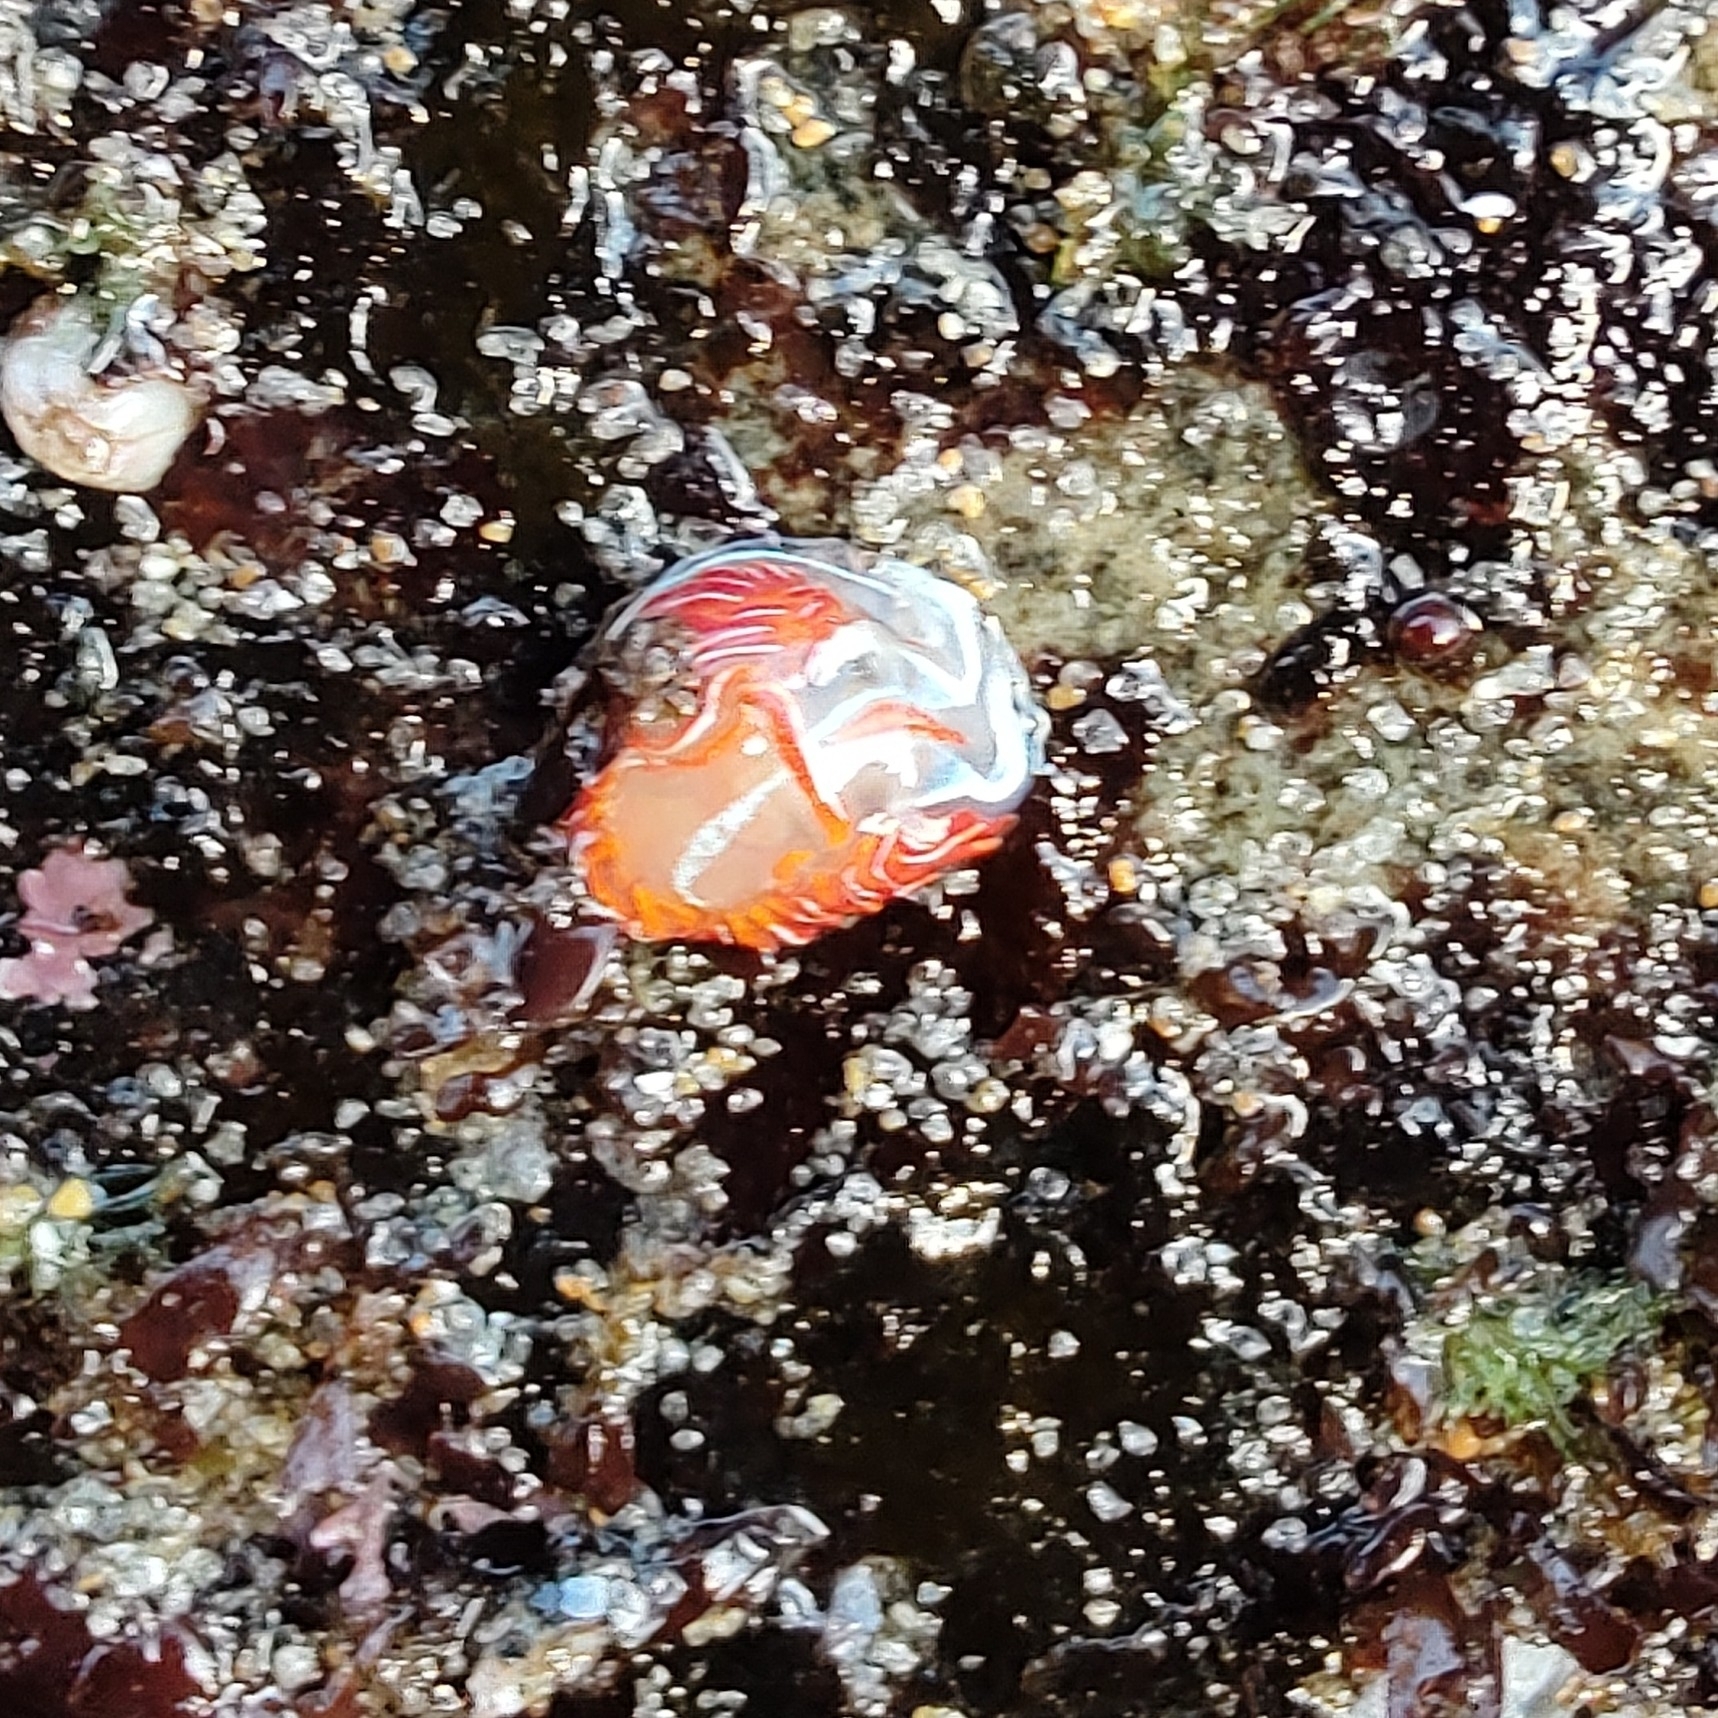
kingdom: Animalia
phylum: Mollusca
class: Gastropoda
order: Nudibranchia
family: Myrrhinidae
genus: Hermissenda
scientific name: Hermissenda crassicornis
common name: Hermissenda
